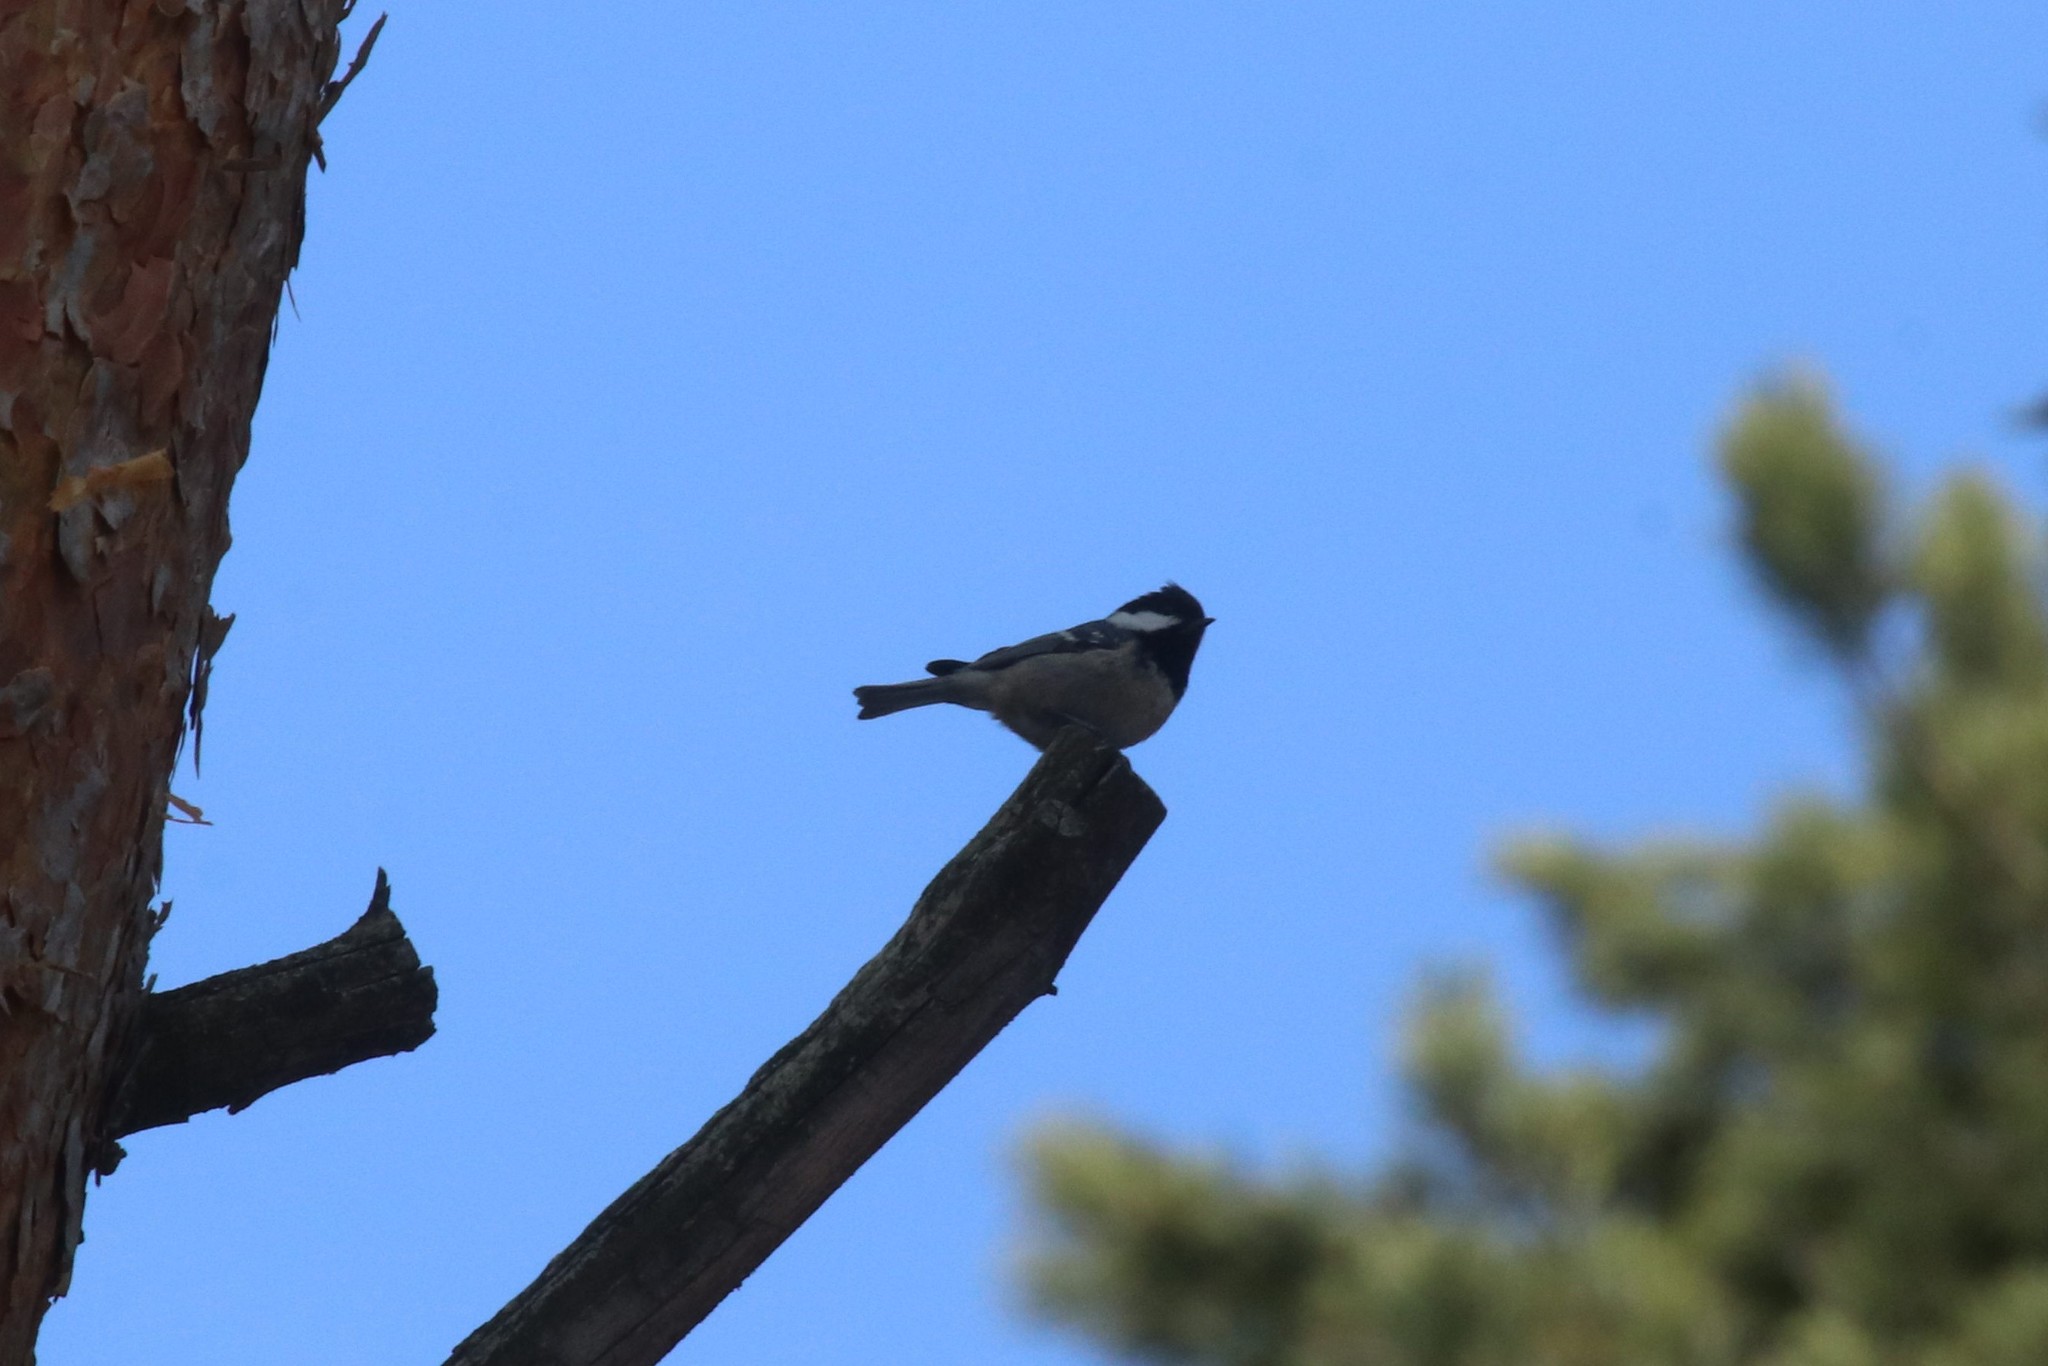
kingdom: Animalia
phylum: Chordata
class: Aves
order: Passeriformes
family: Paridae
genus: Periparus
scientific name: Periparus ater
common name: Coal tit
